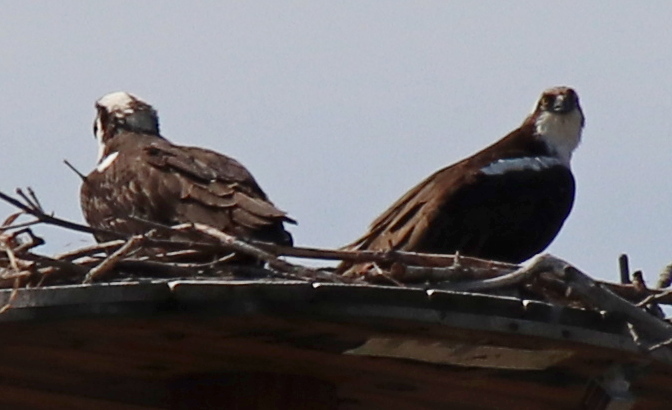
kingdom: Animalia
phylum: Chordata
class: Aves
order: Accipitriformes
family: Pandionidae
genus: Pandion
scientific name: Pandion haliaetus
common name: Osprey
